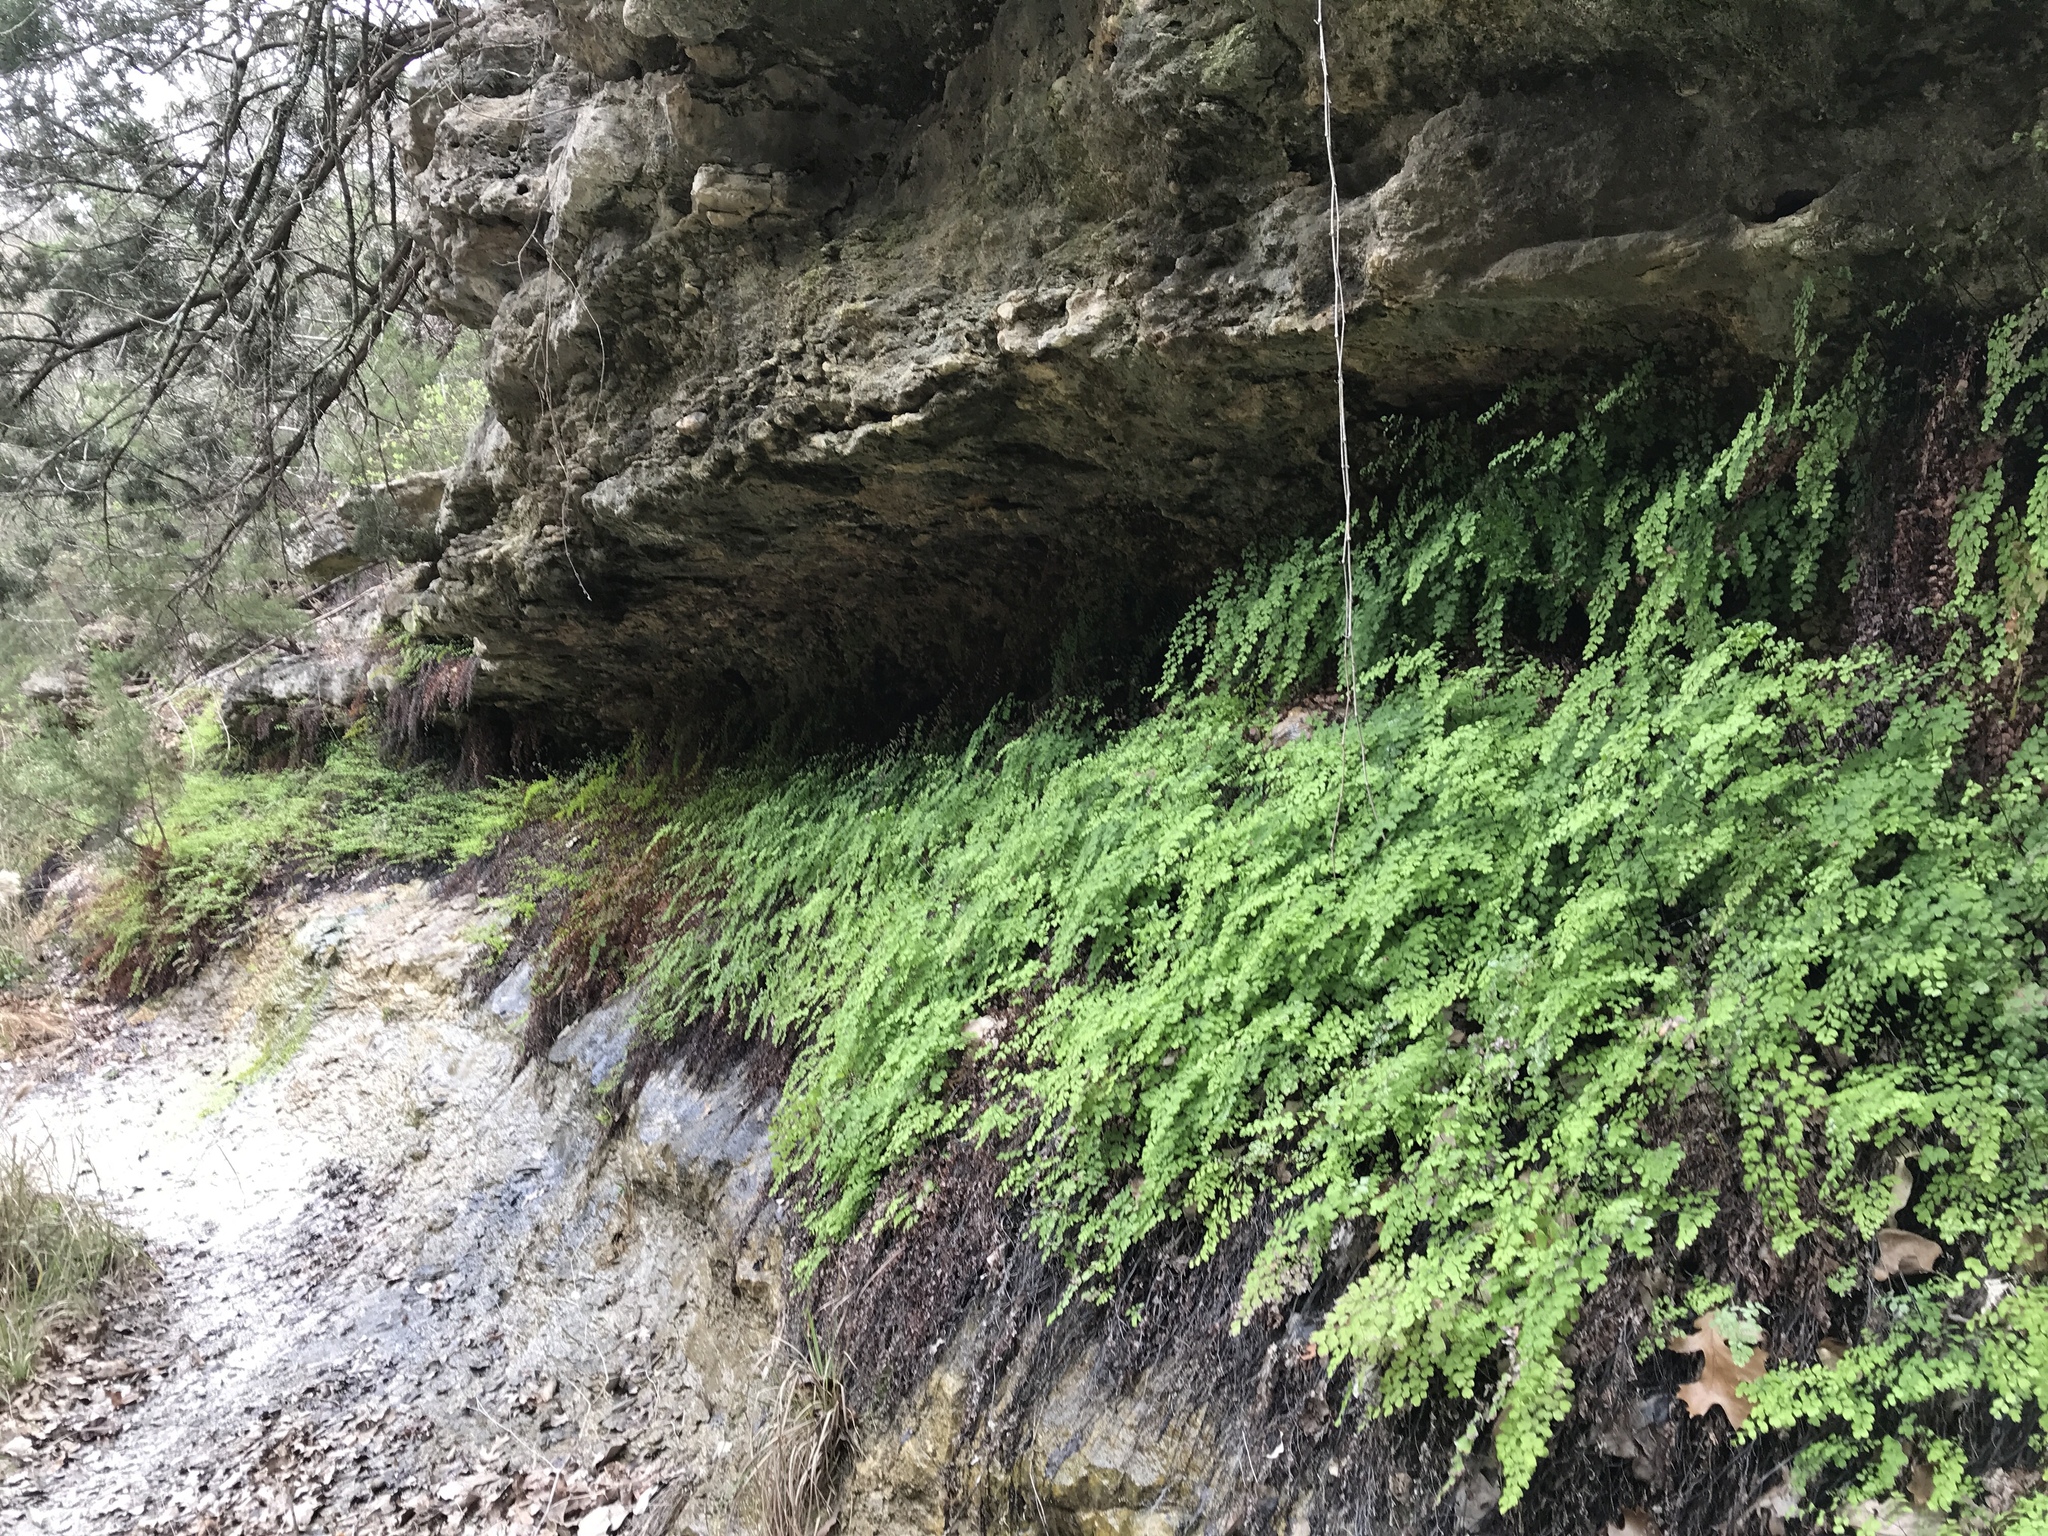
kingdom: Plantae
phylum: Tracheophyta
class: Polypodiopsida
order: Polypodiales
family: Pteridaceae
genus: Adiantum
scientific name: Adiantum capillus-veneris
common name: Maidenhair fern
